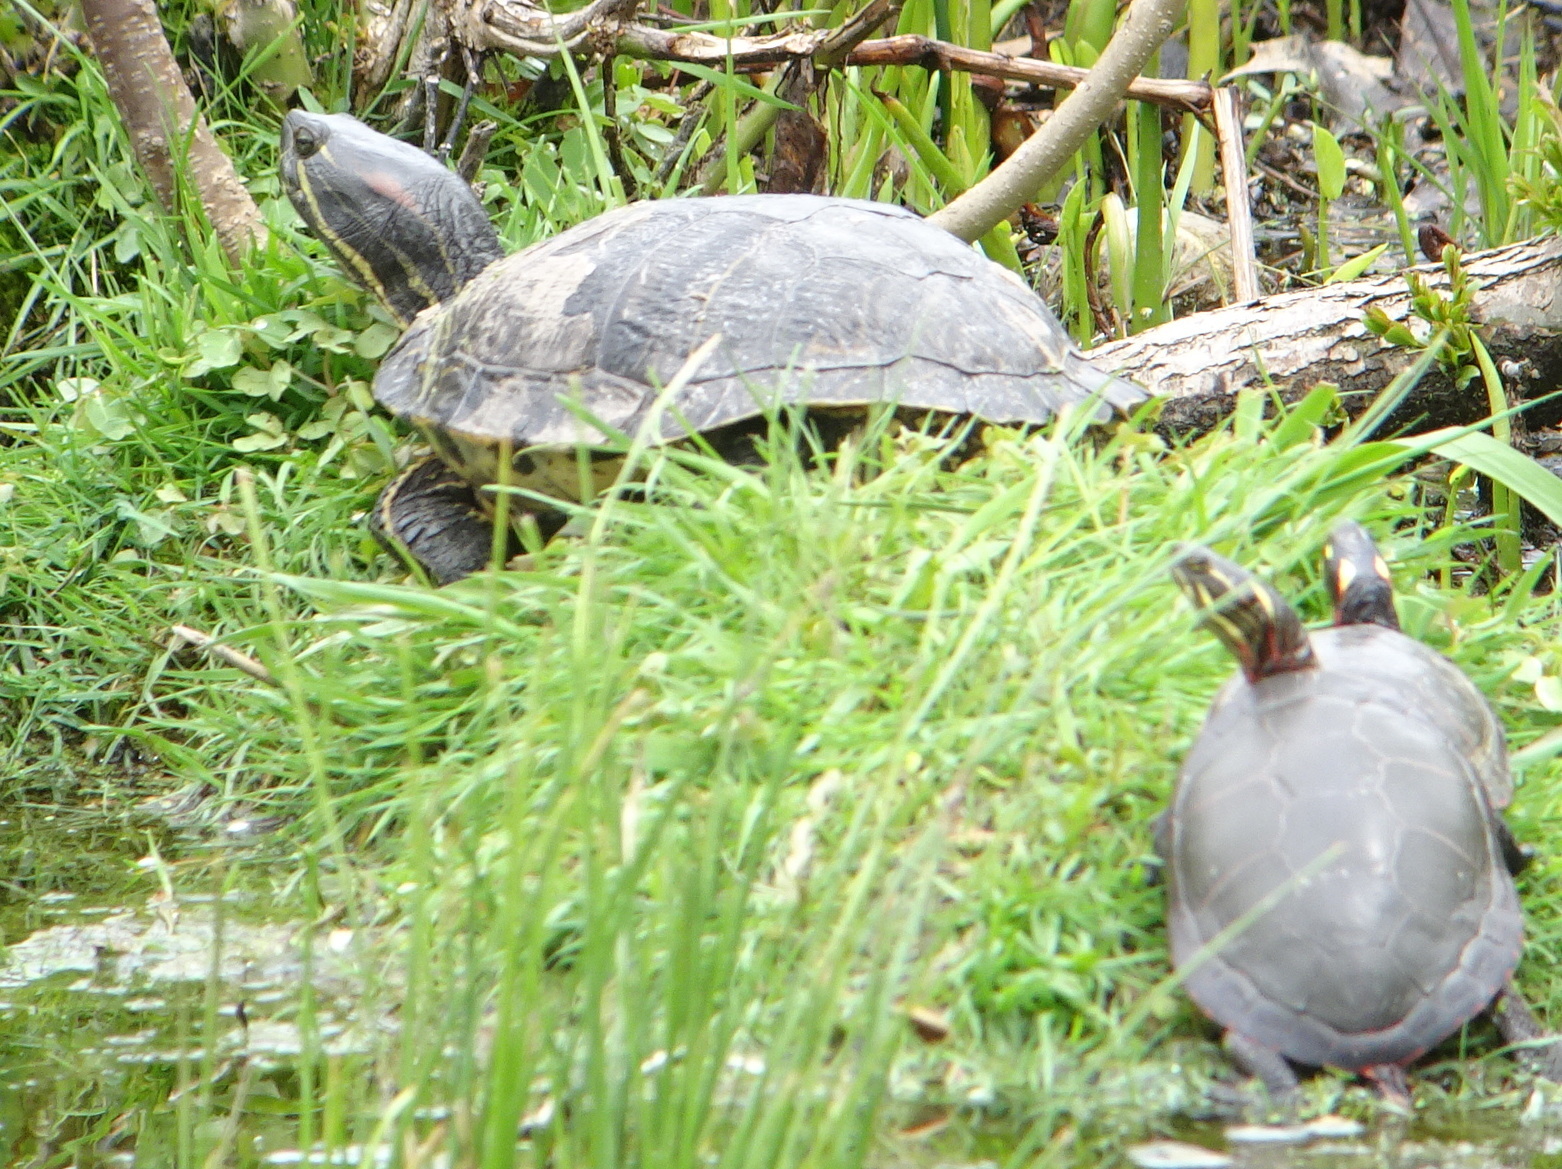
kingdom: Animalia
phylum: Chordata
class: Testudines
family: Emydidae
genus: Trachemys
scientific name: Trachemys scripta
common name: Slider
